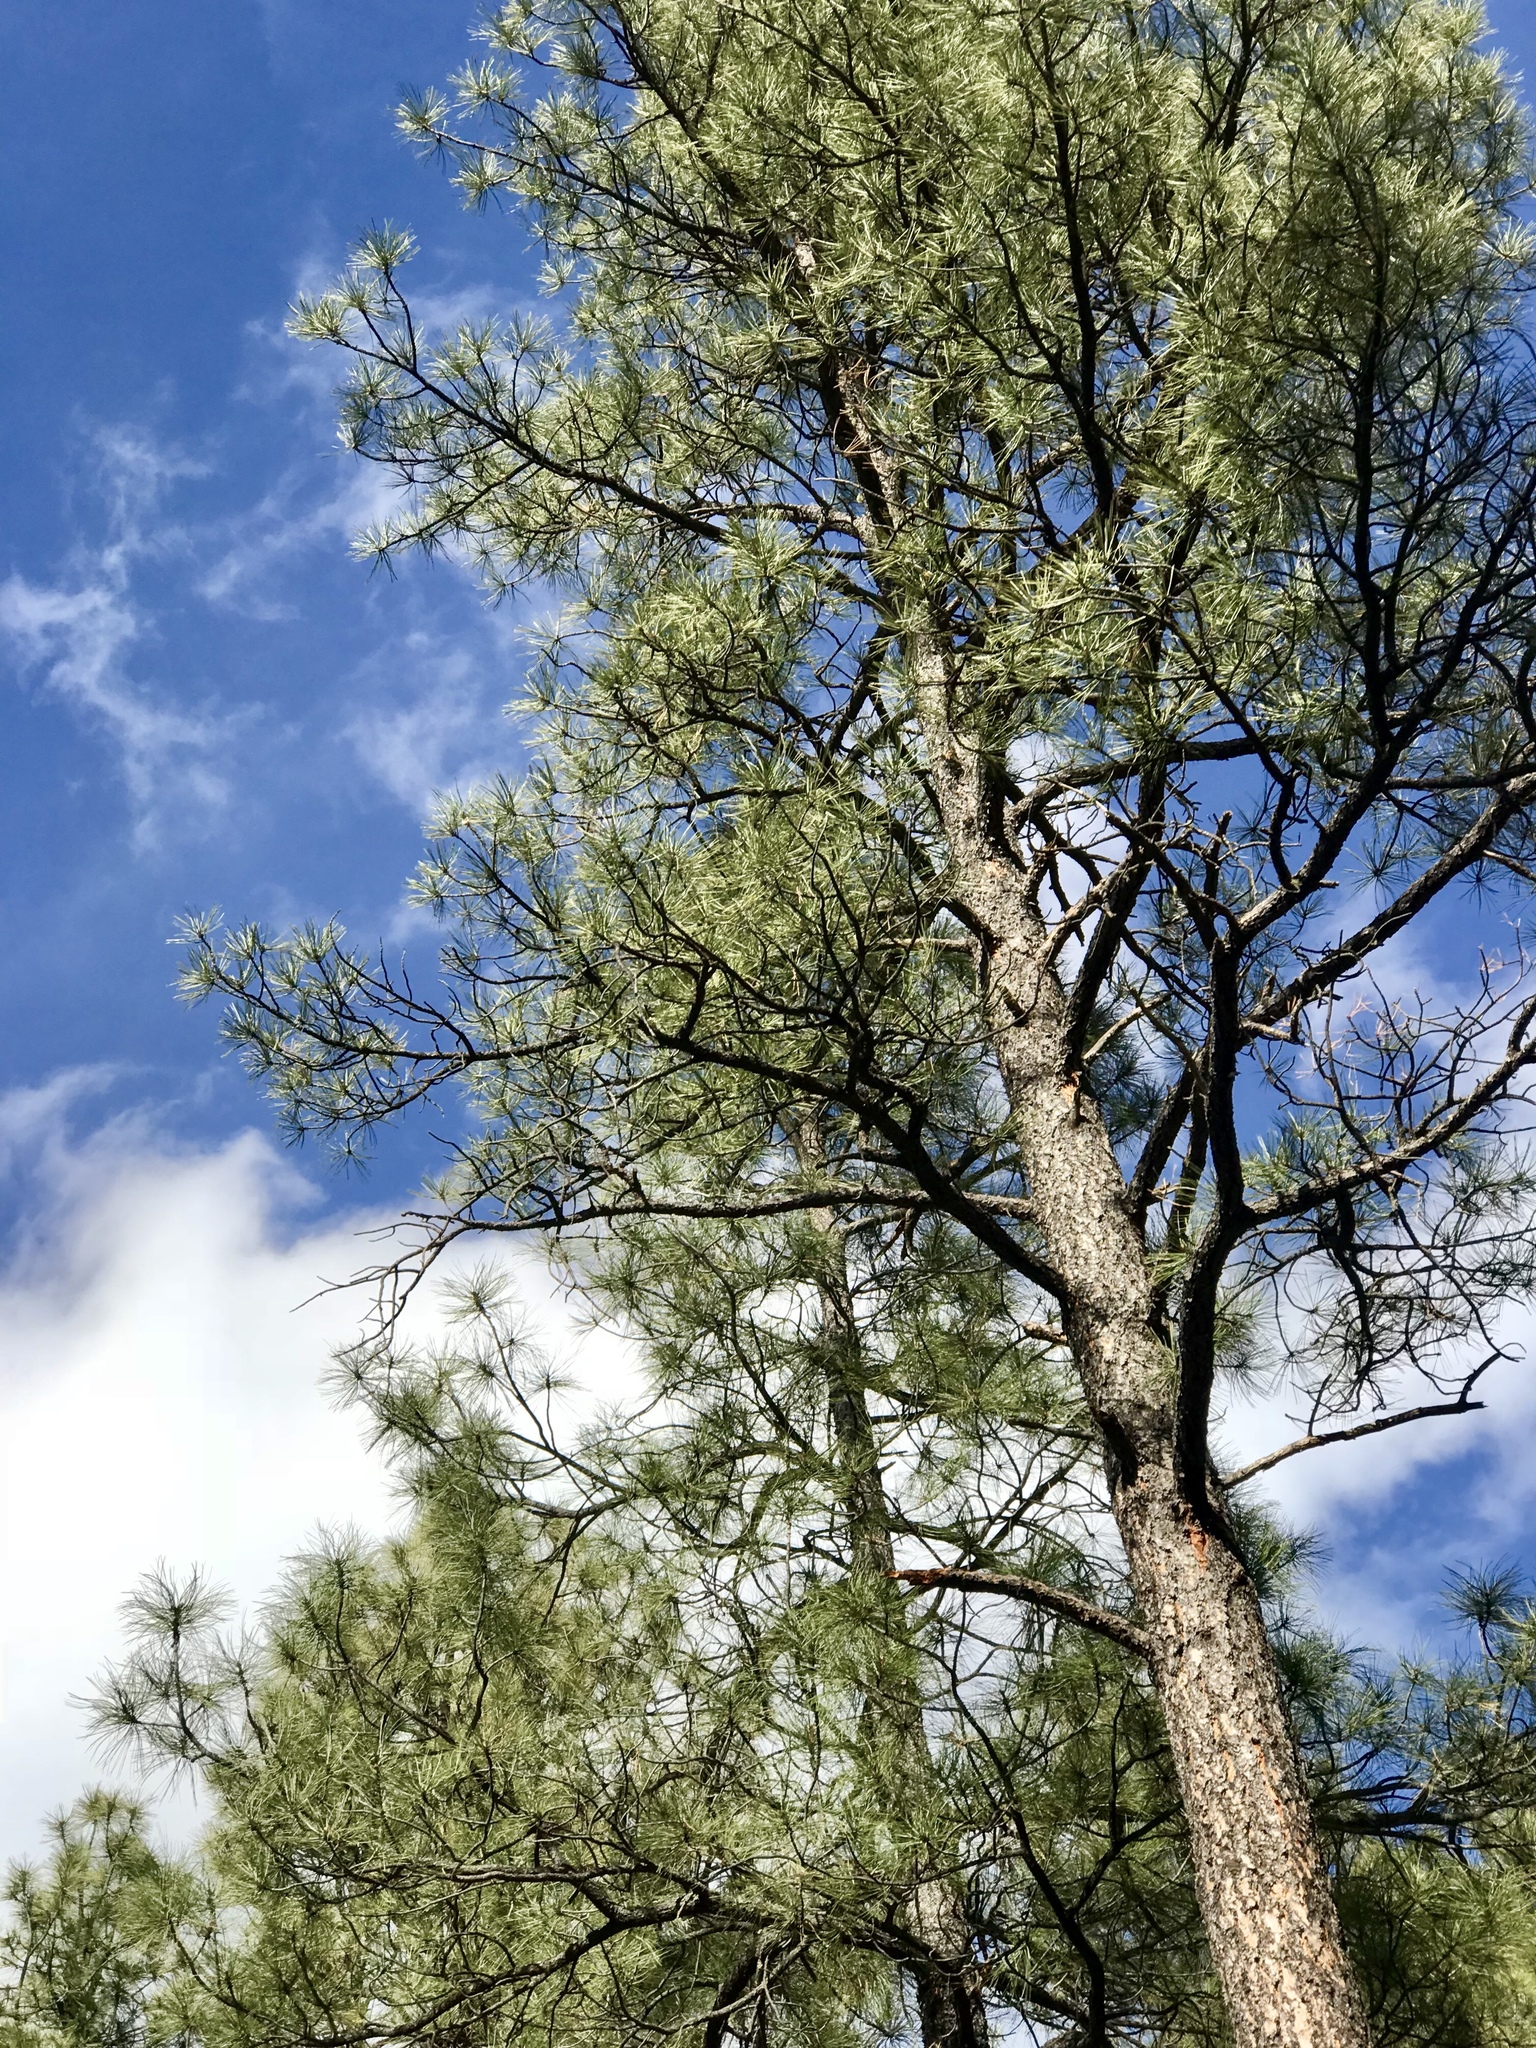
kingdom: Plantae
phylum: Tracheophyta
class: Pinopsida
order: Pinales
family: Pinaceae
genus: Pinus
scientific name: Pinus ponderosa
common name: Western yellow-pine
